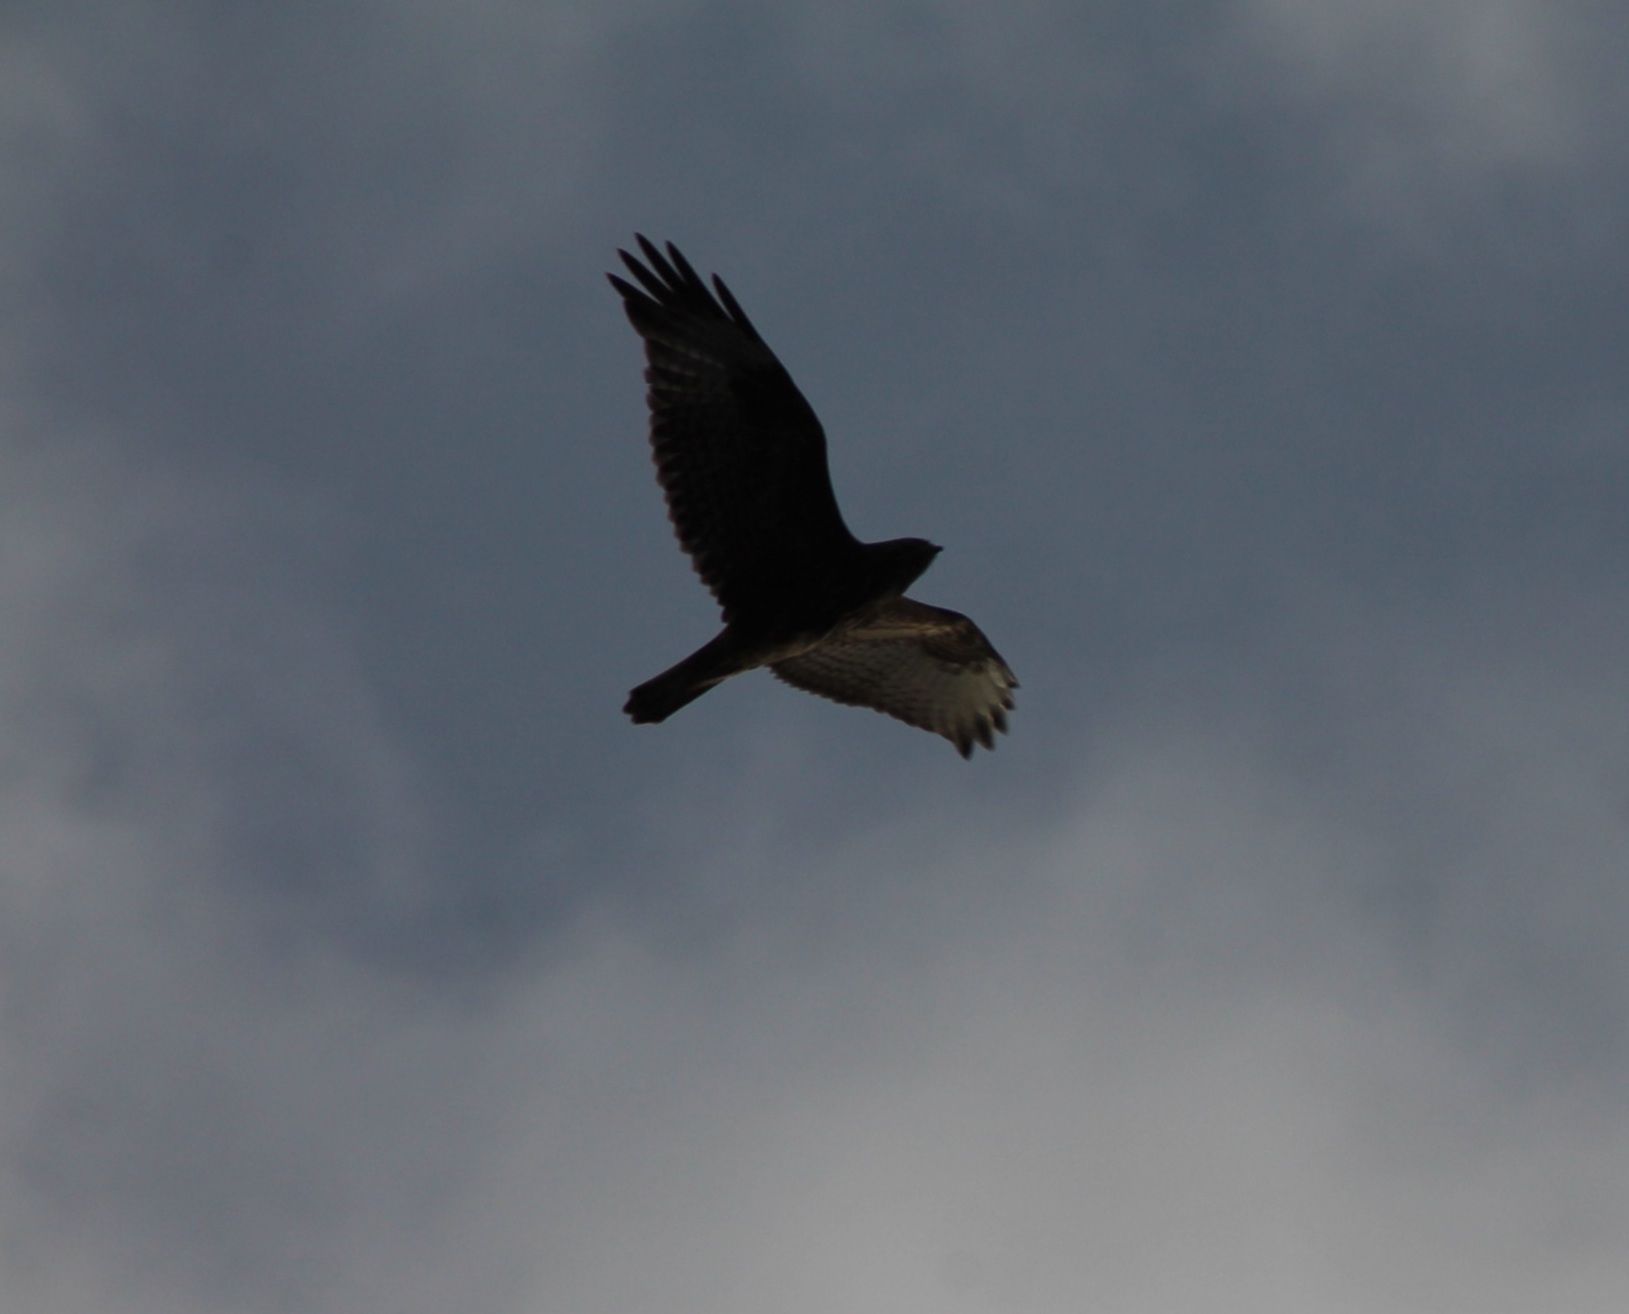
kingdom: Animalia
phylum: Chordata
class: Aves
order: Accipitriformes
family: Accipitridae
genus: Buteo
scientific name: Buteo buteo
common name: Common buzzard
